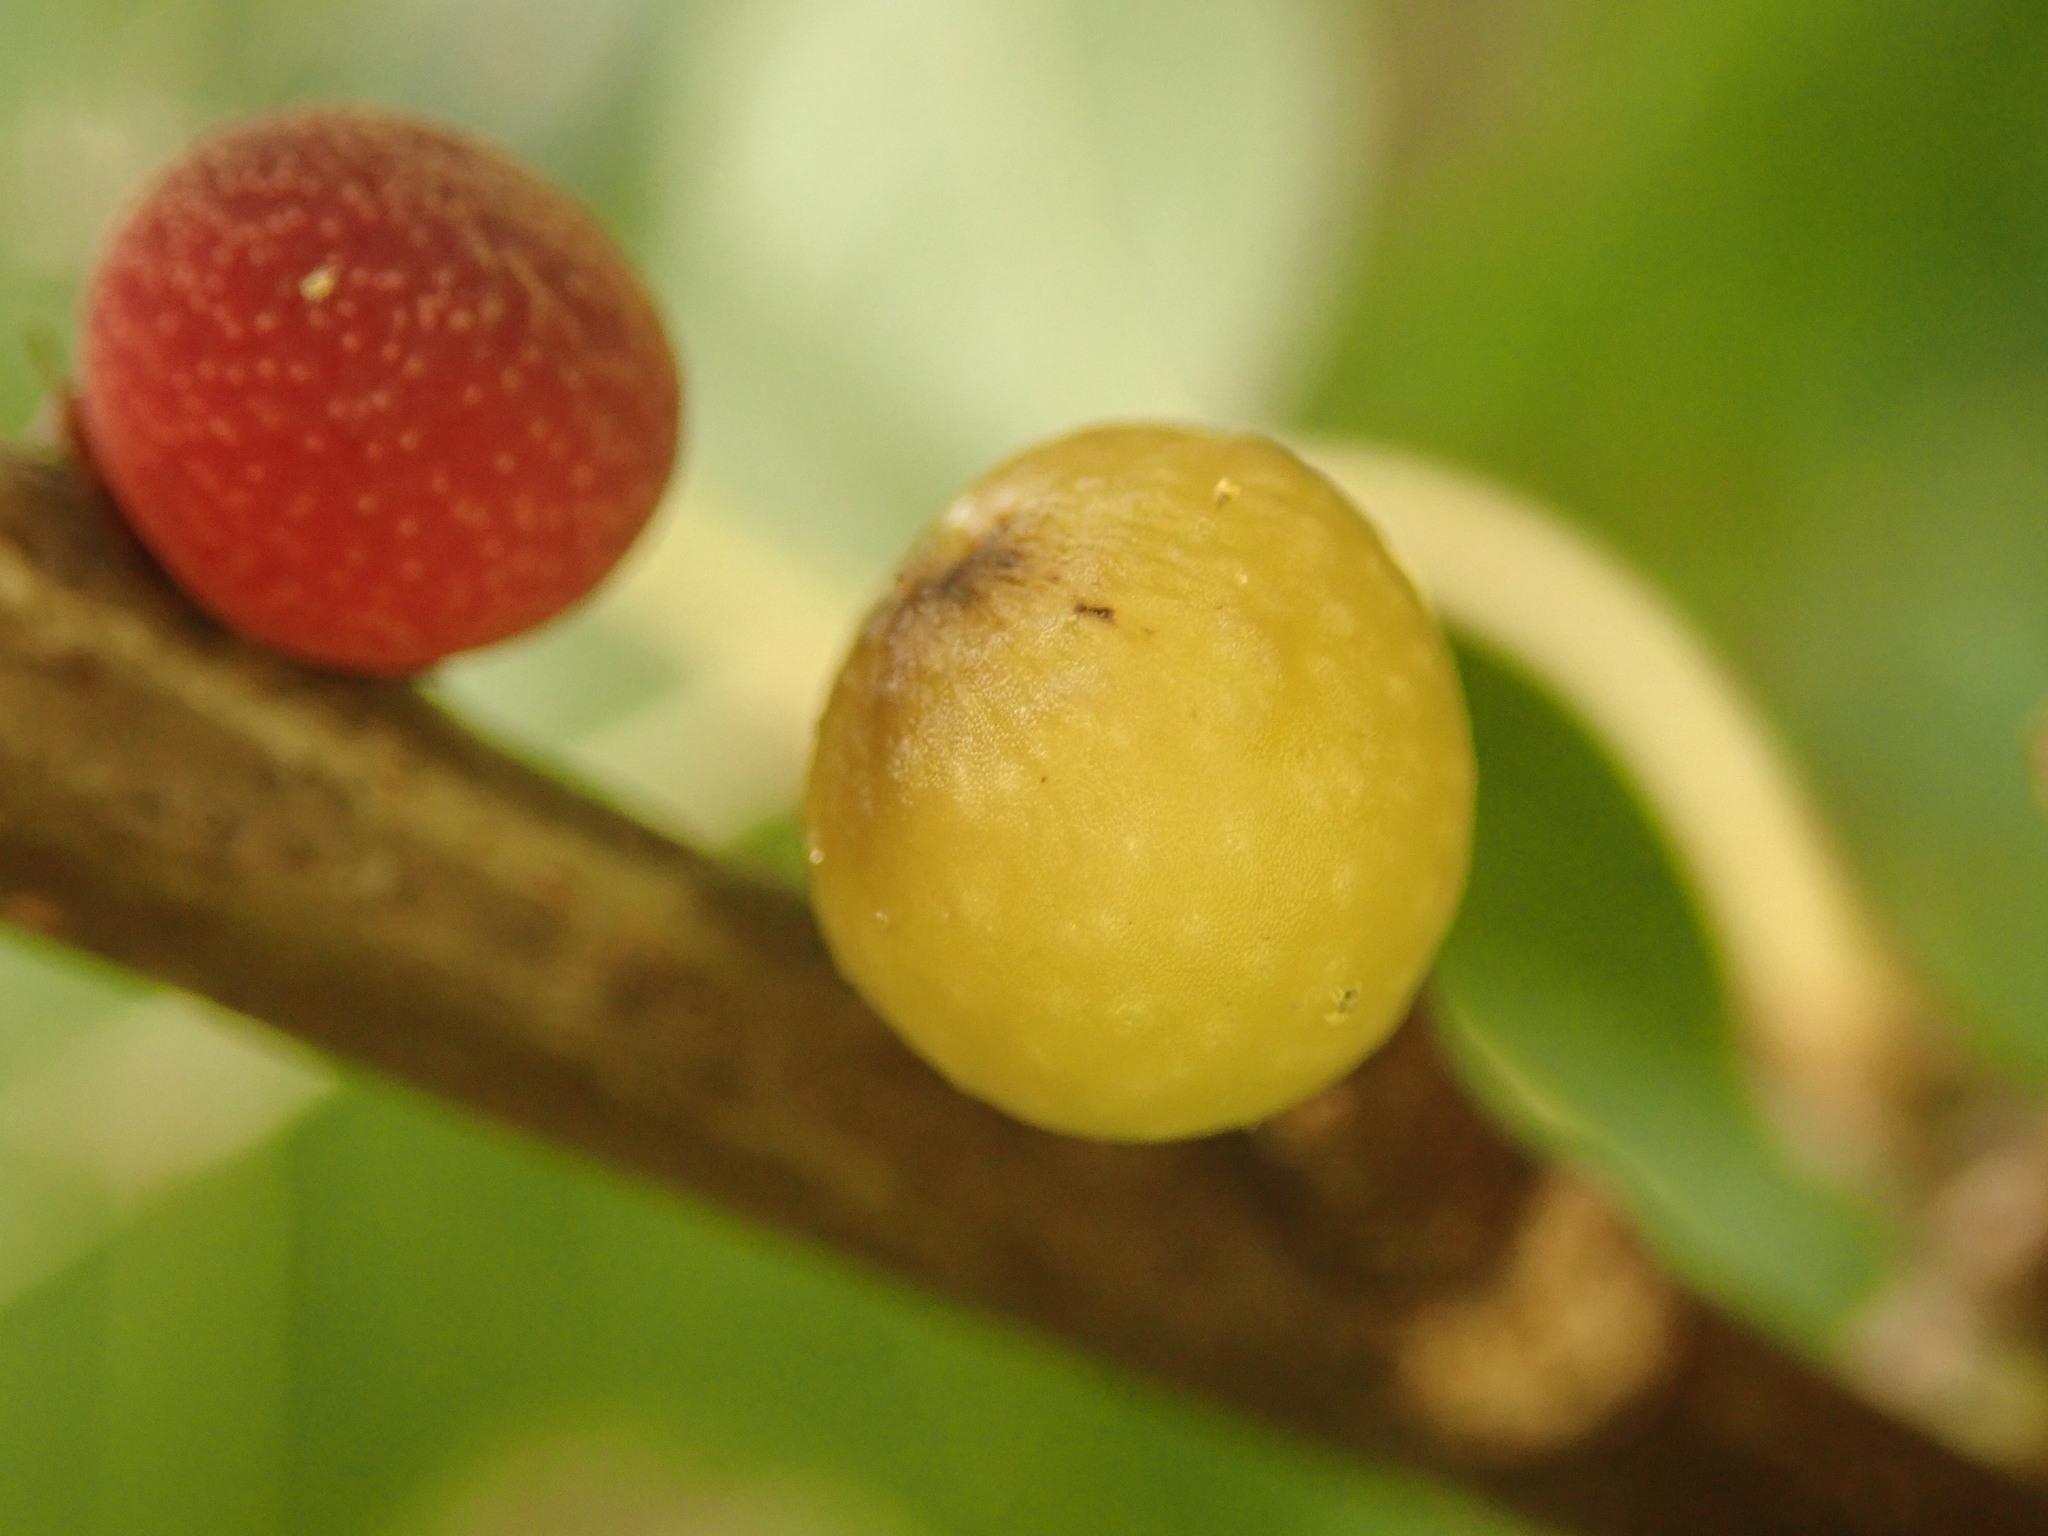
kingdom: Animalia
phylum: Arthropoda
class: Insecta
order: Hymenoptera
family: Cynipidae
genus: Callirhytis
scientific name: Callirhytis
